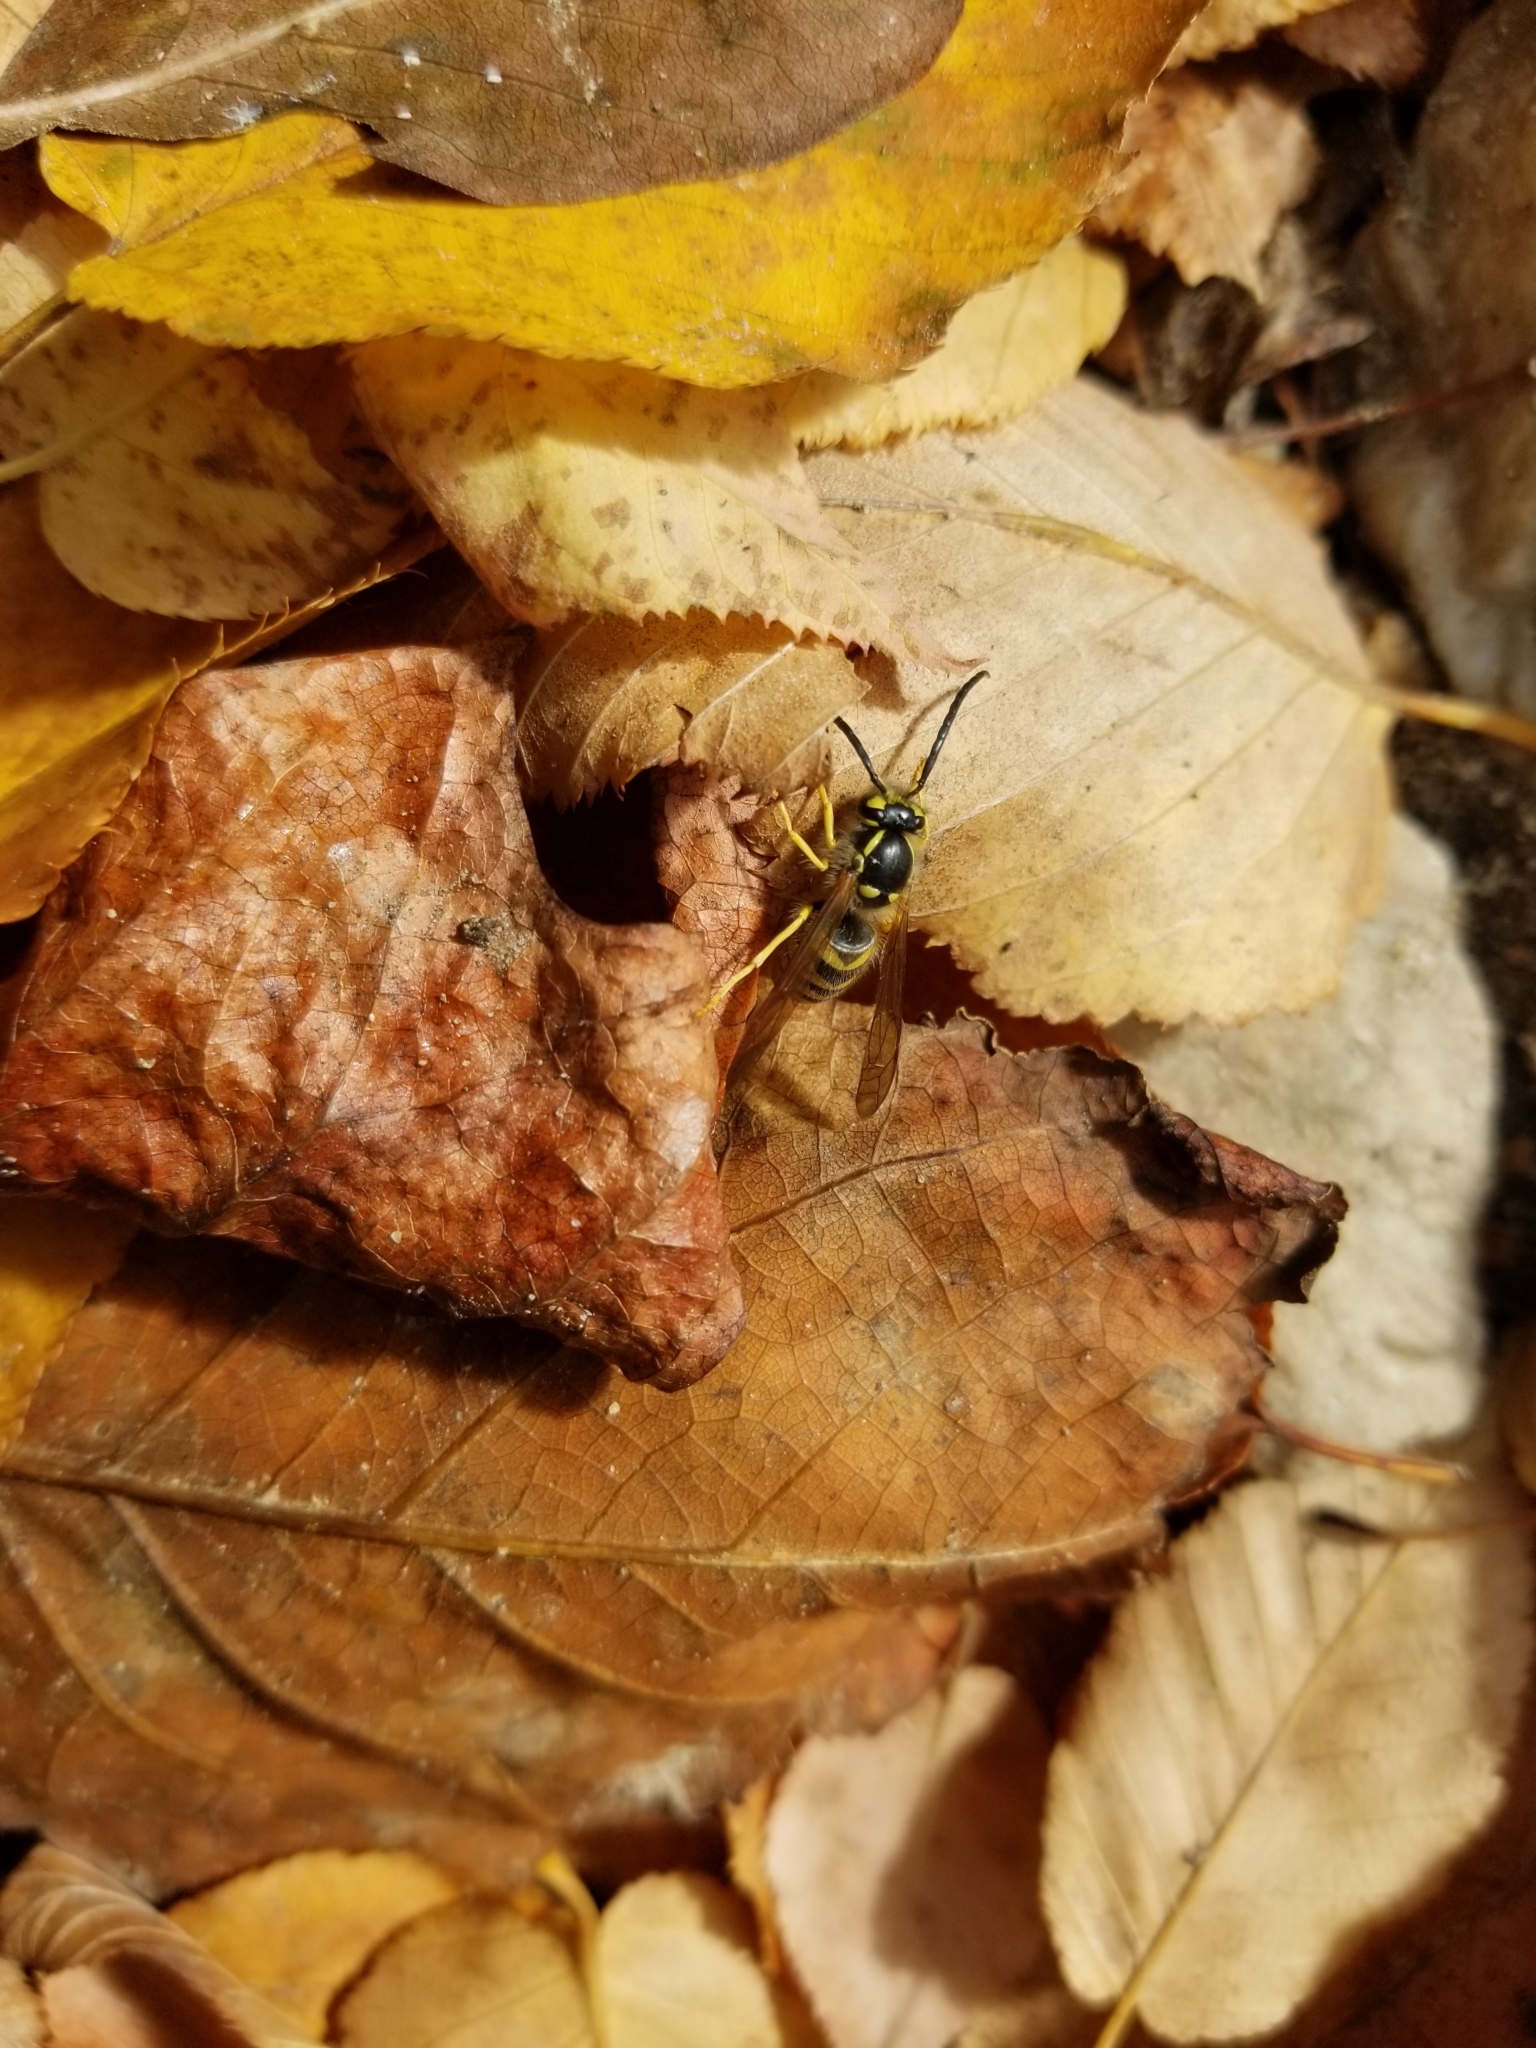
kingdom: Animalia
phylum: Arthropoda
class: Insecta
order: Hymenoptera
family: Vespidae
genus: Vespula
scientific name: Vespula flavopilosa
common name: Downy yellowjacket
